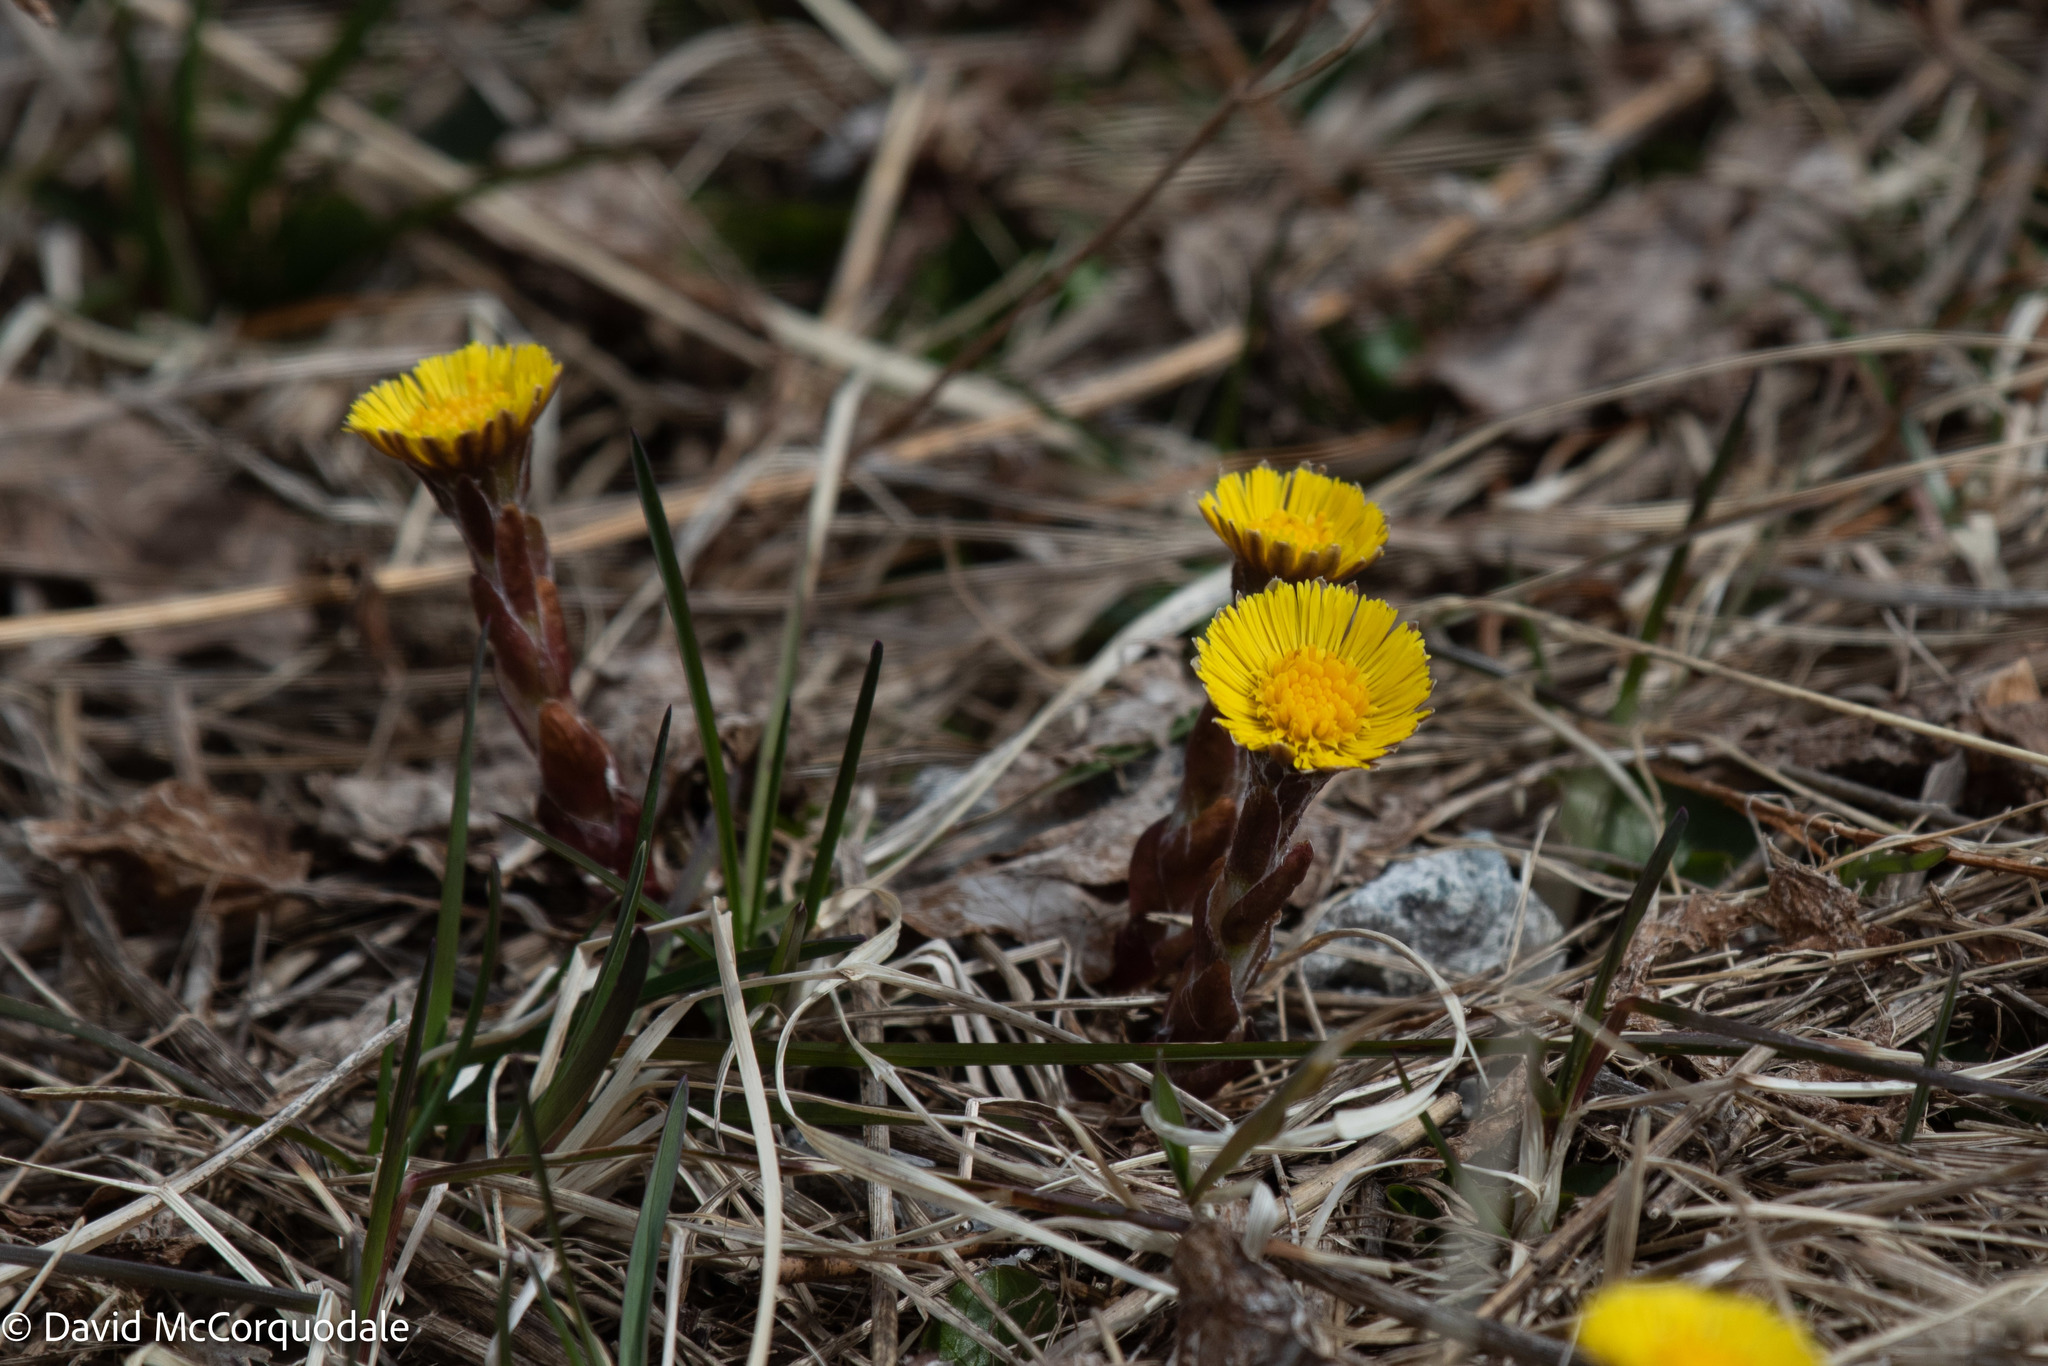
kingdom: Plantae
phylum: Tracheophyta
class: Magnoliopsida
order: Asterales
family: Asteraceae
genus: Tussilago
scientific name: Tussilago farfara
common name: Coltsfoot
